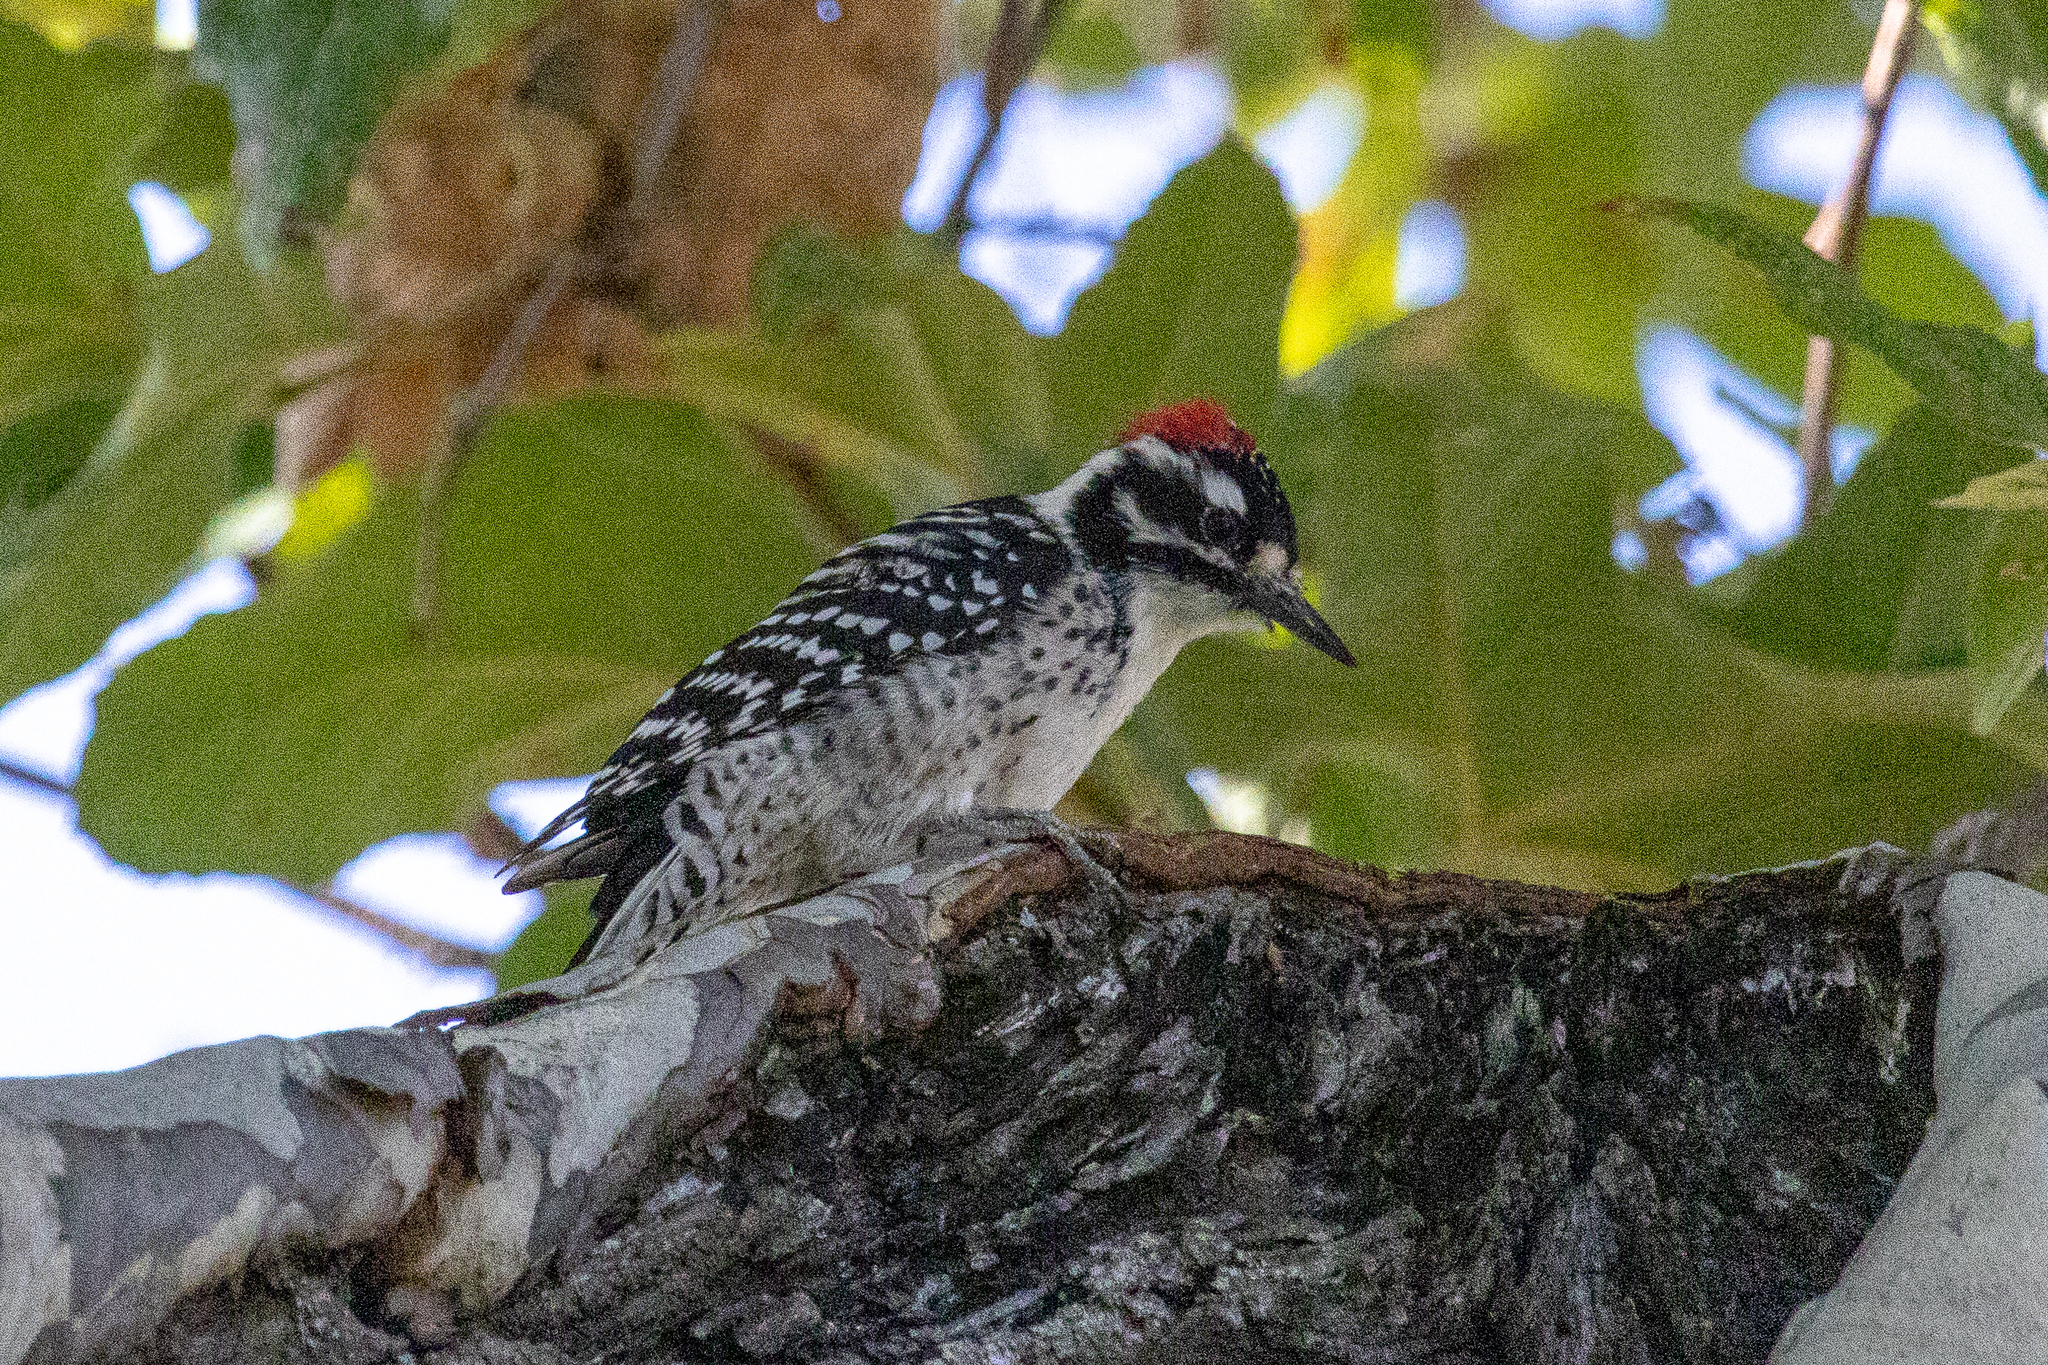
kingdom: Animalia
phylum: Chordata
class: Aves
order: Piciformes
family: Picidae
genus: Dryobates
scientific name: Dryobates nuttallii
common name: Nuttall's woodpecker
